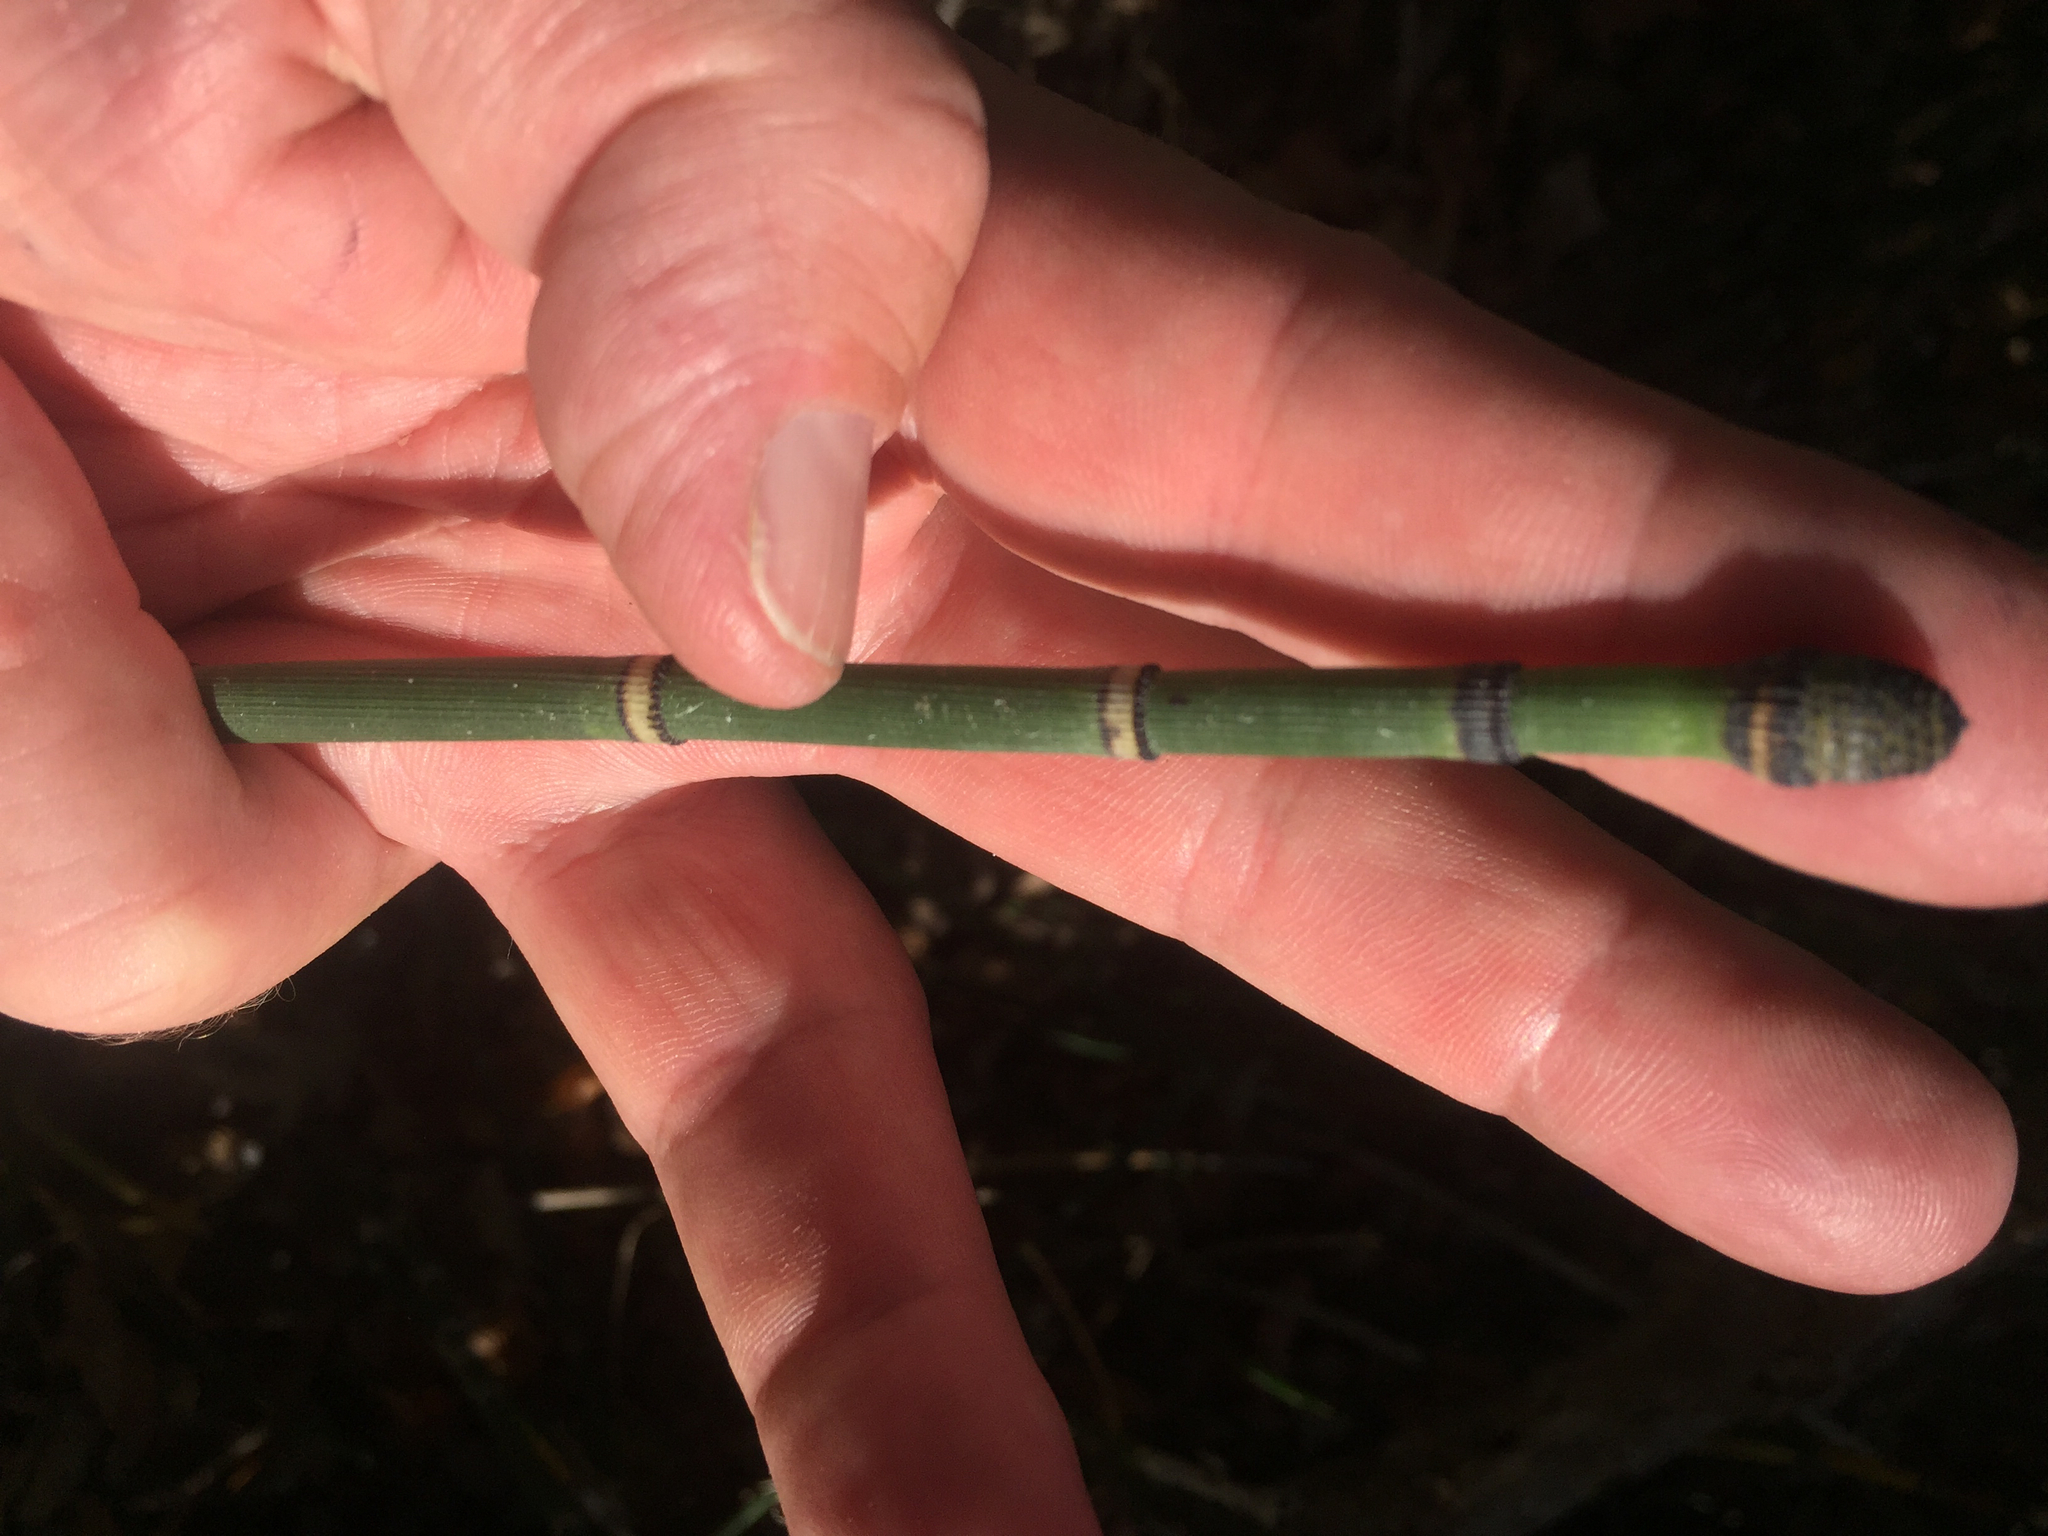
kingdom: Plantae
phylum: Tracheophyta
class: Polypodiopsida
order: Equisetales
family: Equisetaceae
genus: Equisetum
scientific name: Equisetum hyemale
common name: Rough horsetail
